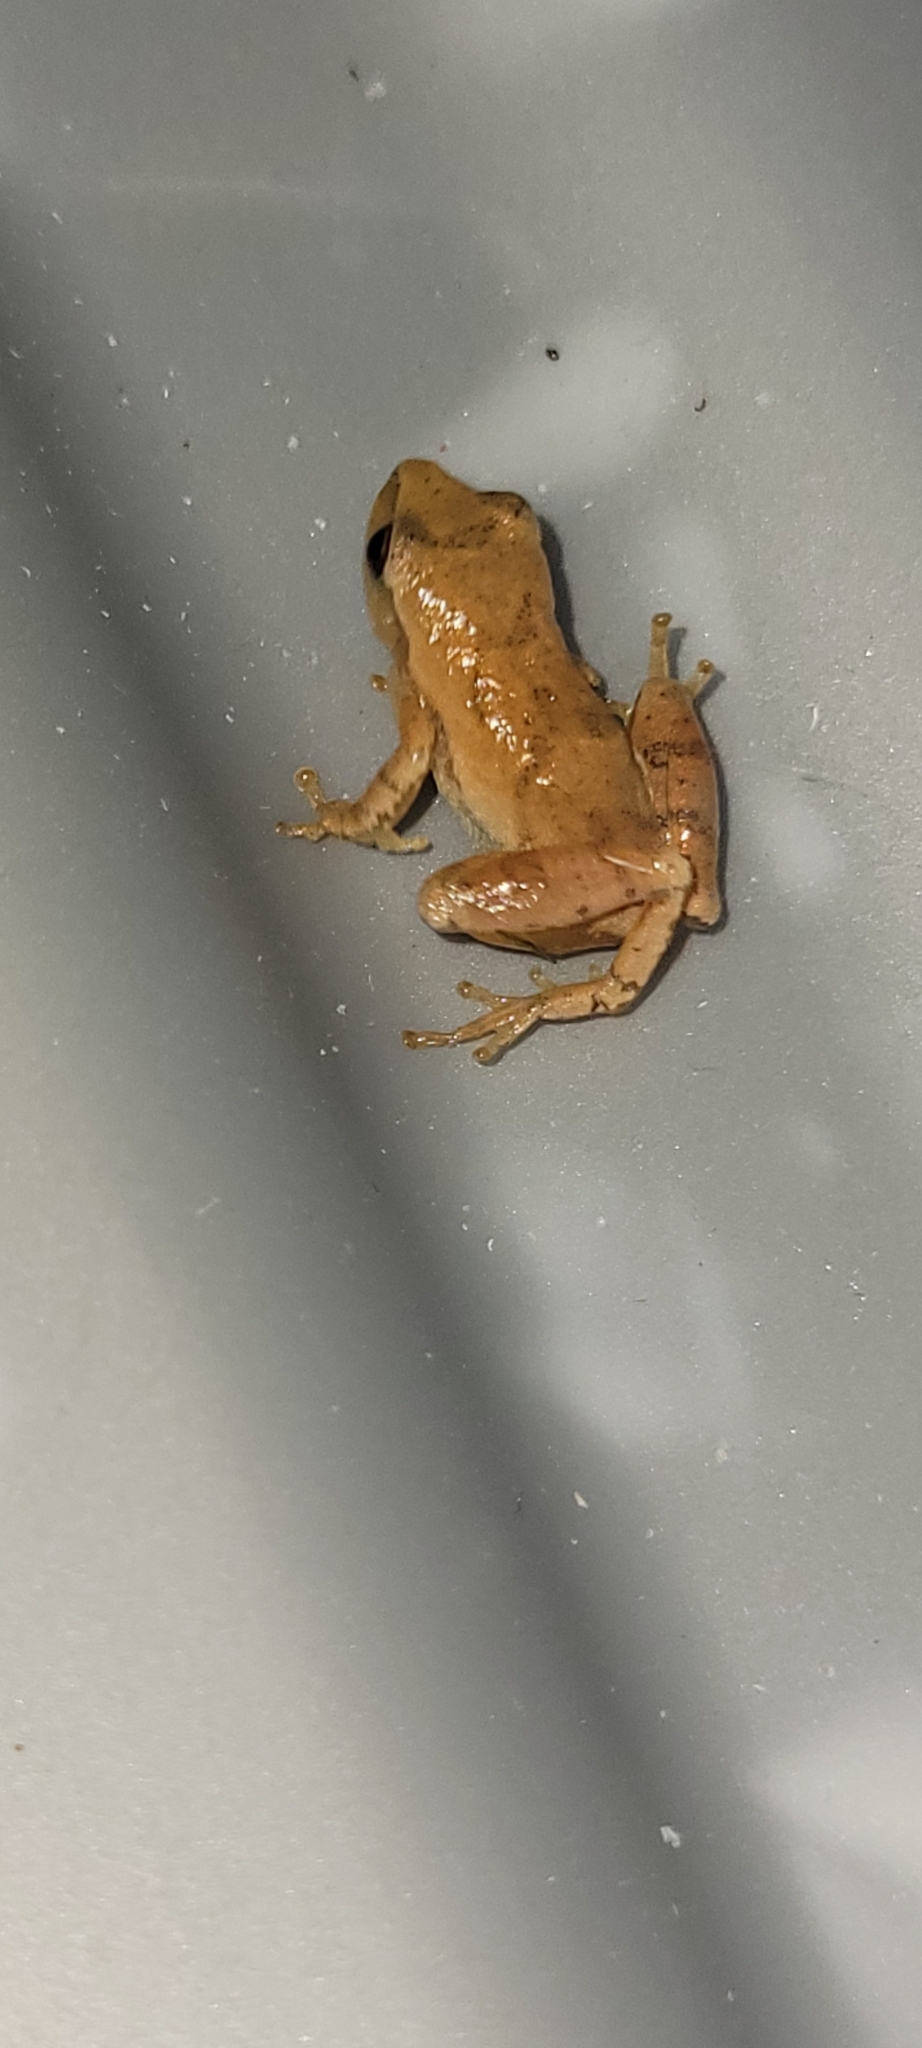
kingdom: Animalia
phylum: Chordata
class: Amphibia
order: Anura
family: Hylidae
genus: Pseudacris
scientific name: Pseudacris crucifer
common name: Spring peeper
